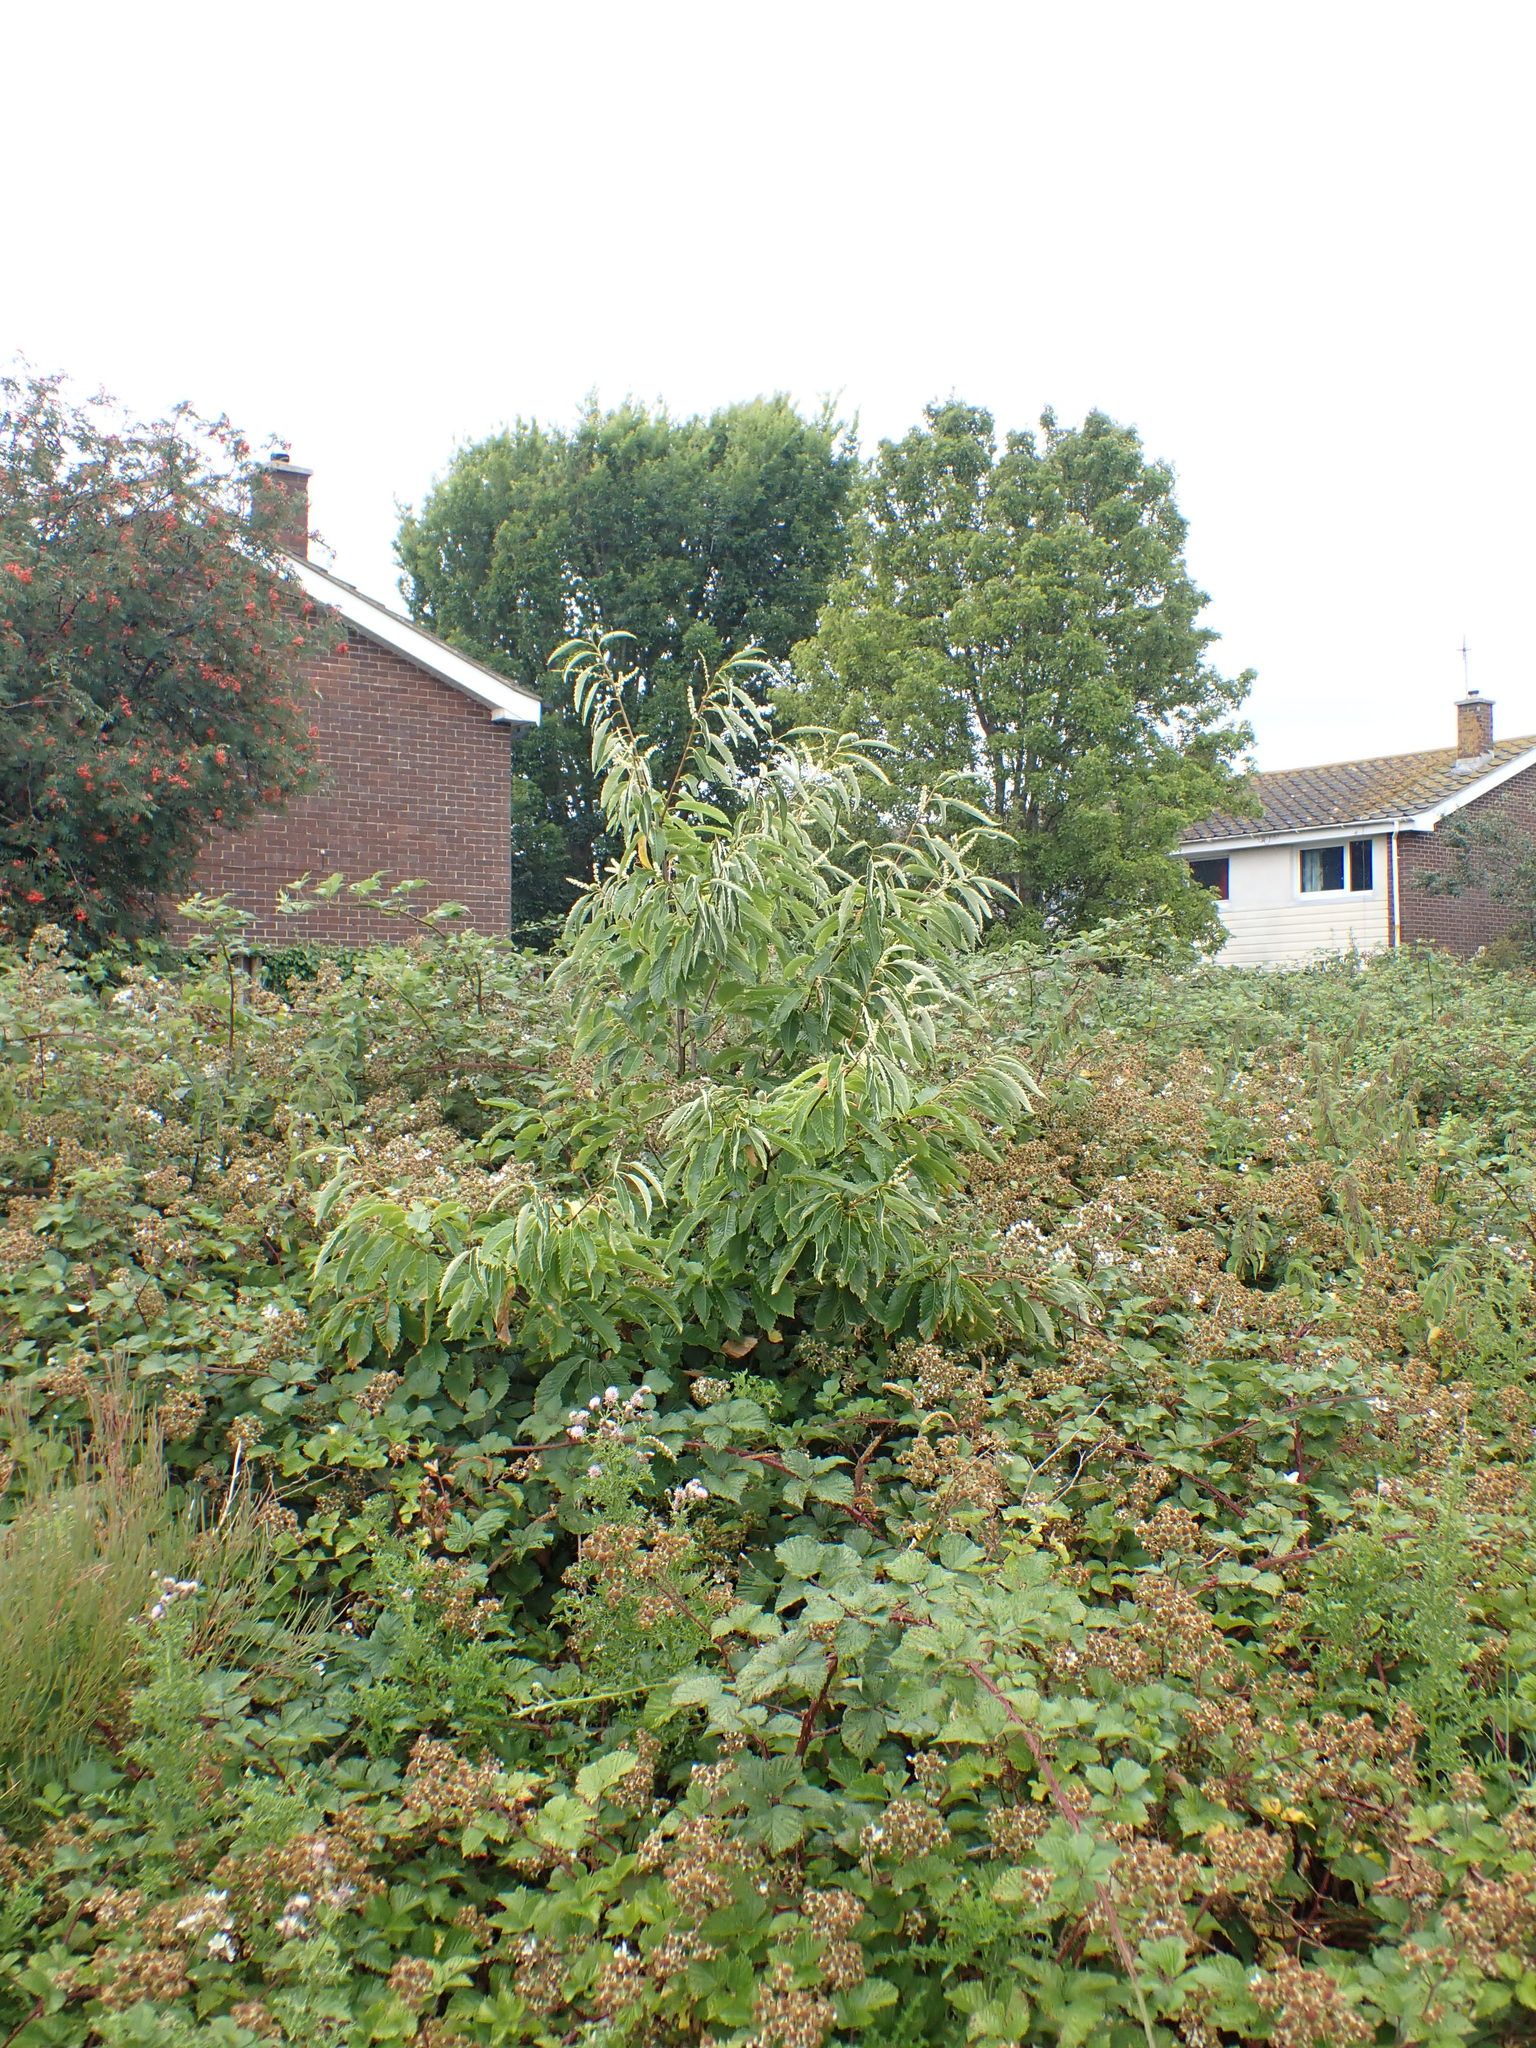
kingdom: Plantae
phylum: Tracheophyta
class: Magnoliopsida
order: Fagales
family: Fagaceae
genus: Castanea
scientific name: Castanea sativa
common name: Sweet chestnut
